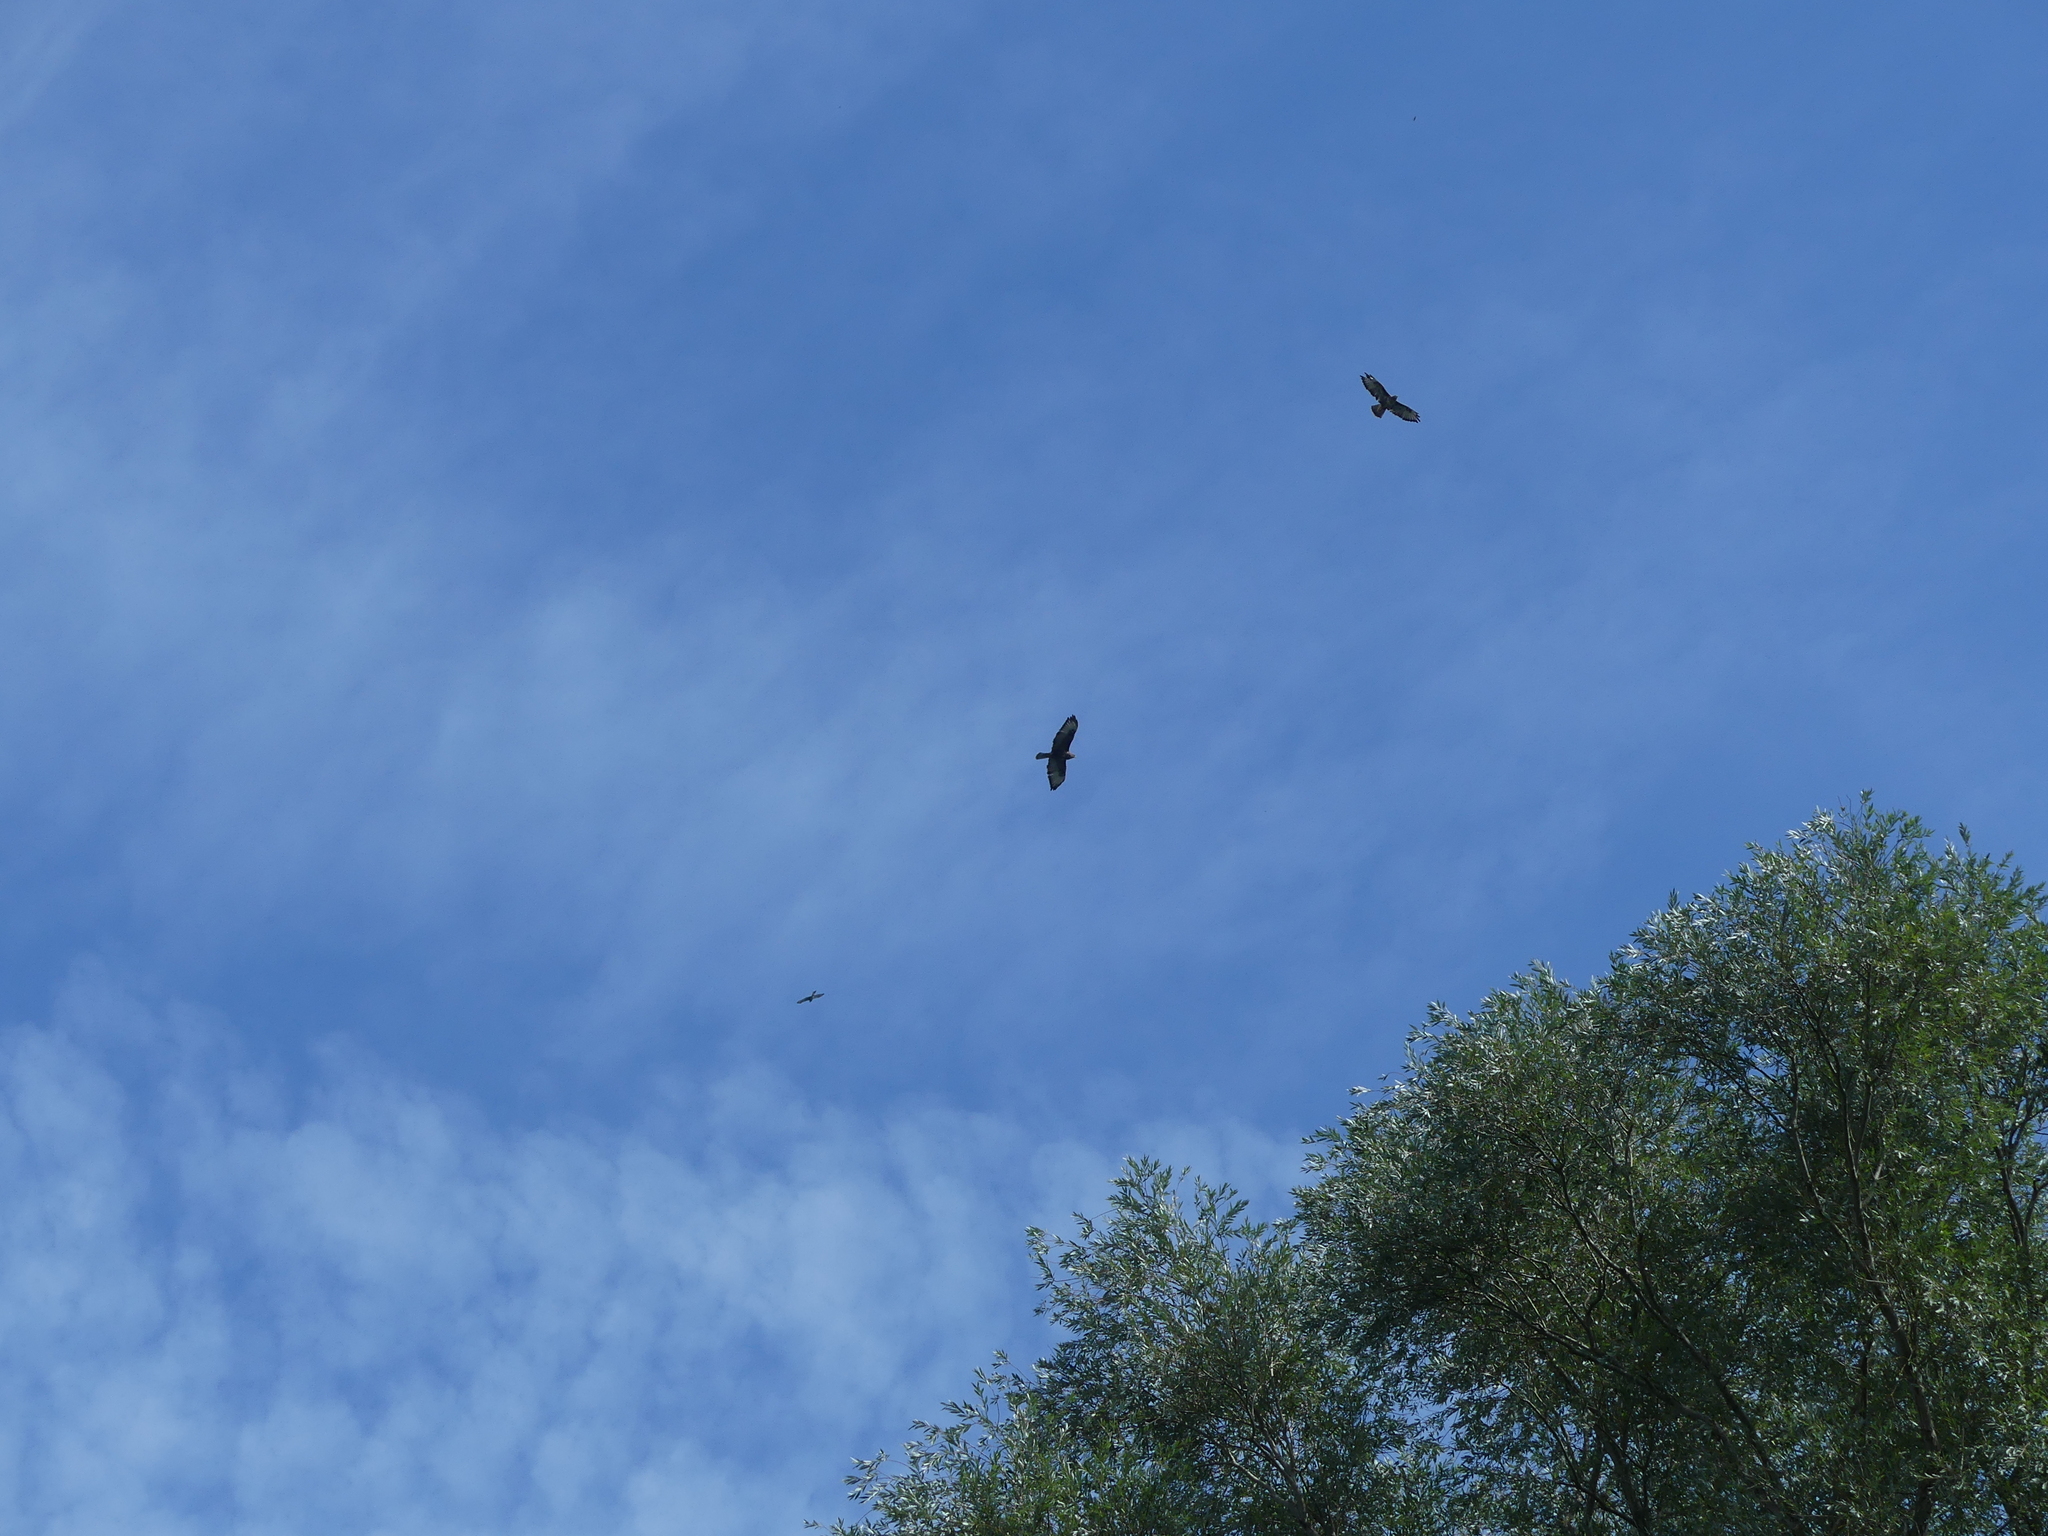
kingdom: Animalia
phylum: Chordata
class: Aves
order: Accipitriformes
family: Accipitridae
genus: Buteo
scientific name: Buteo buteo
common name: Common buzzard
